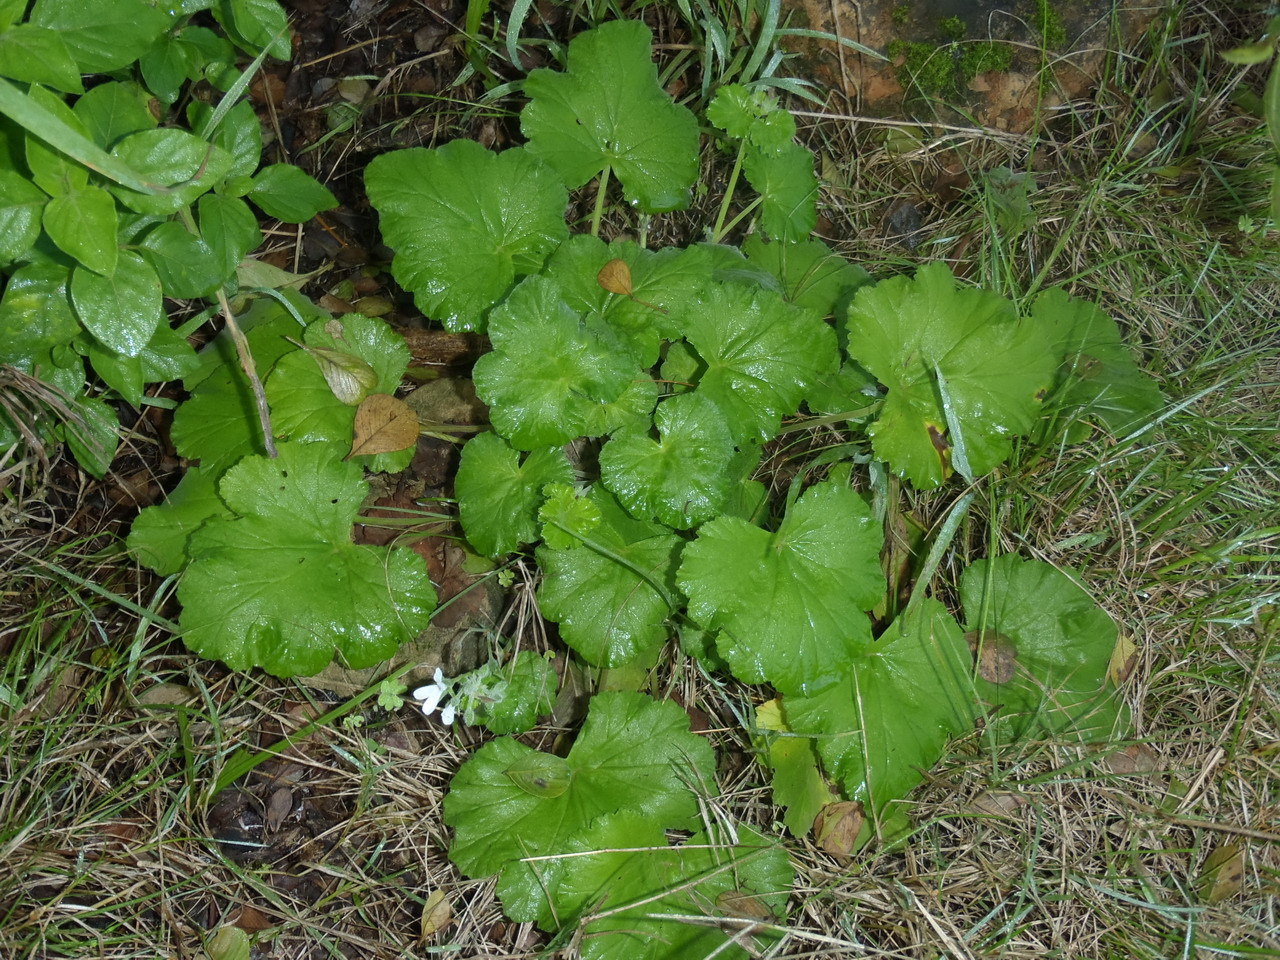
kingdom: Plantae
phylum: Tracheophyta
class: Magnoliopsida
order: Geraniales
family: Geraniaceae
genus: Pelargonium
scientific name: Pelargonium odoratissimum
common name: Apple geranium
